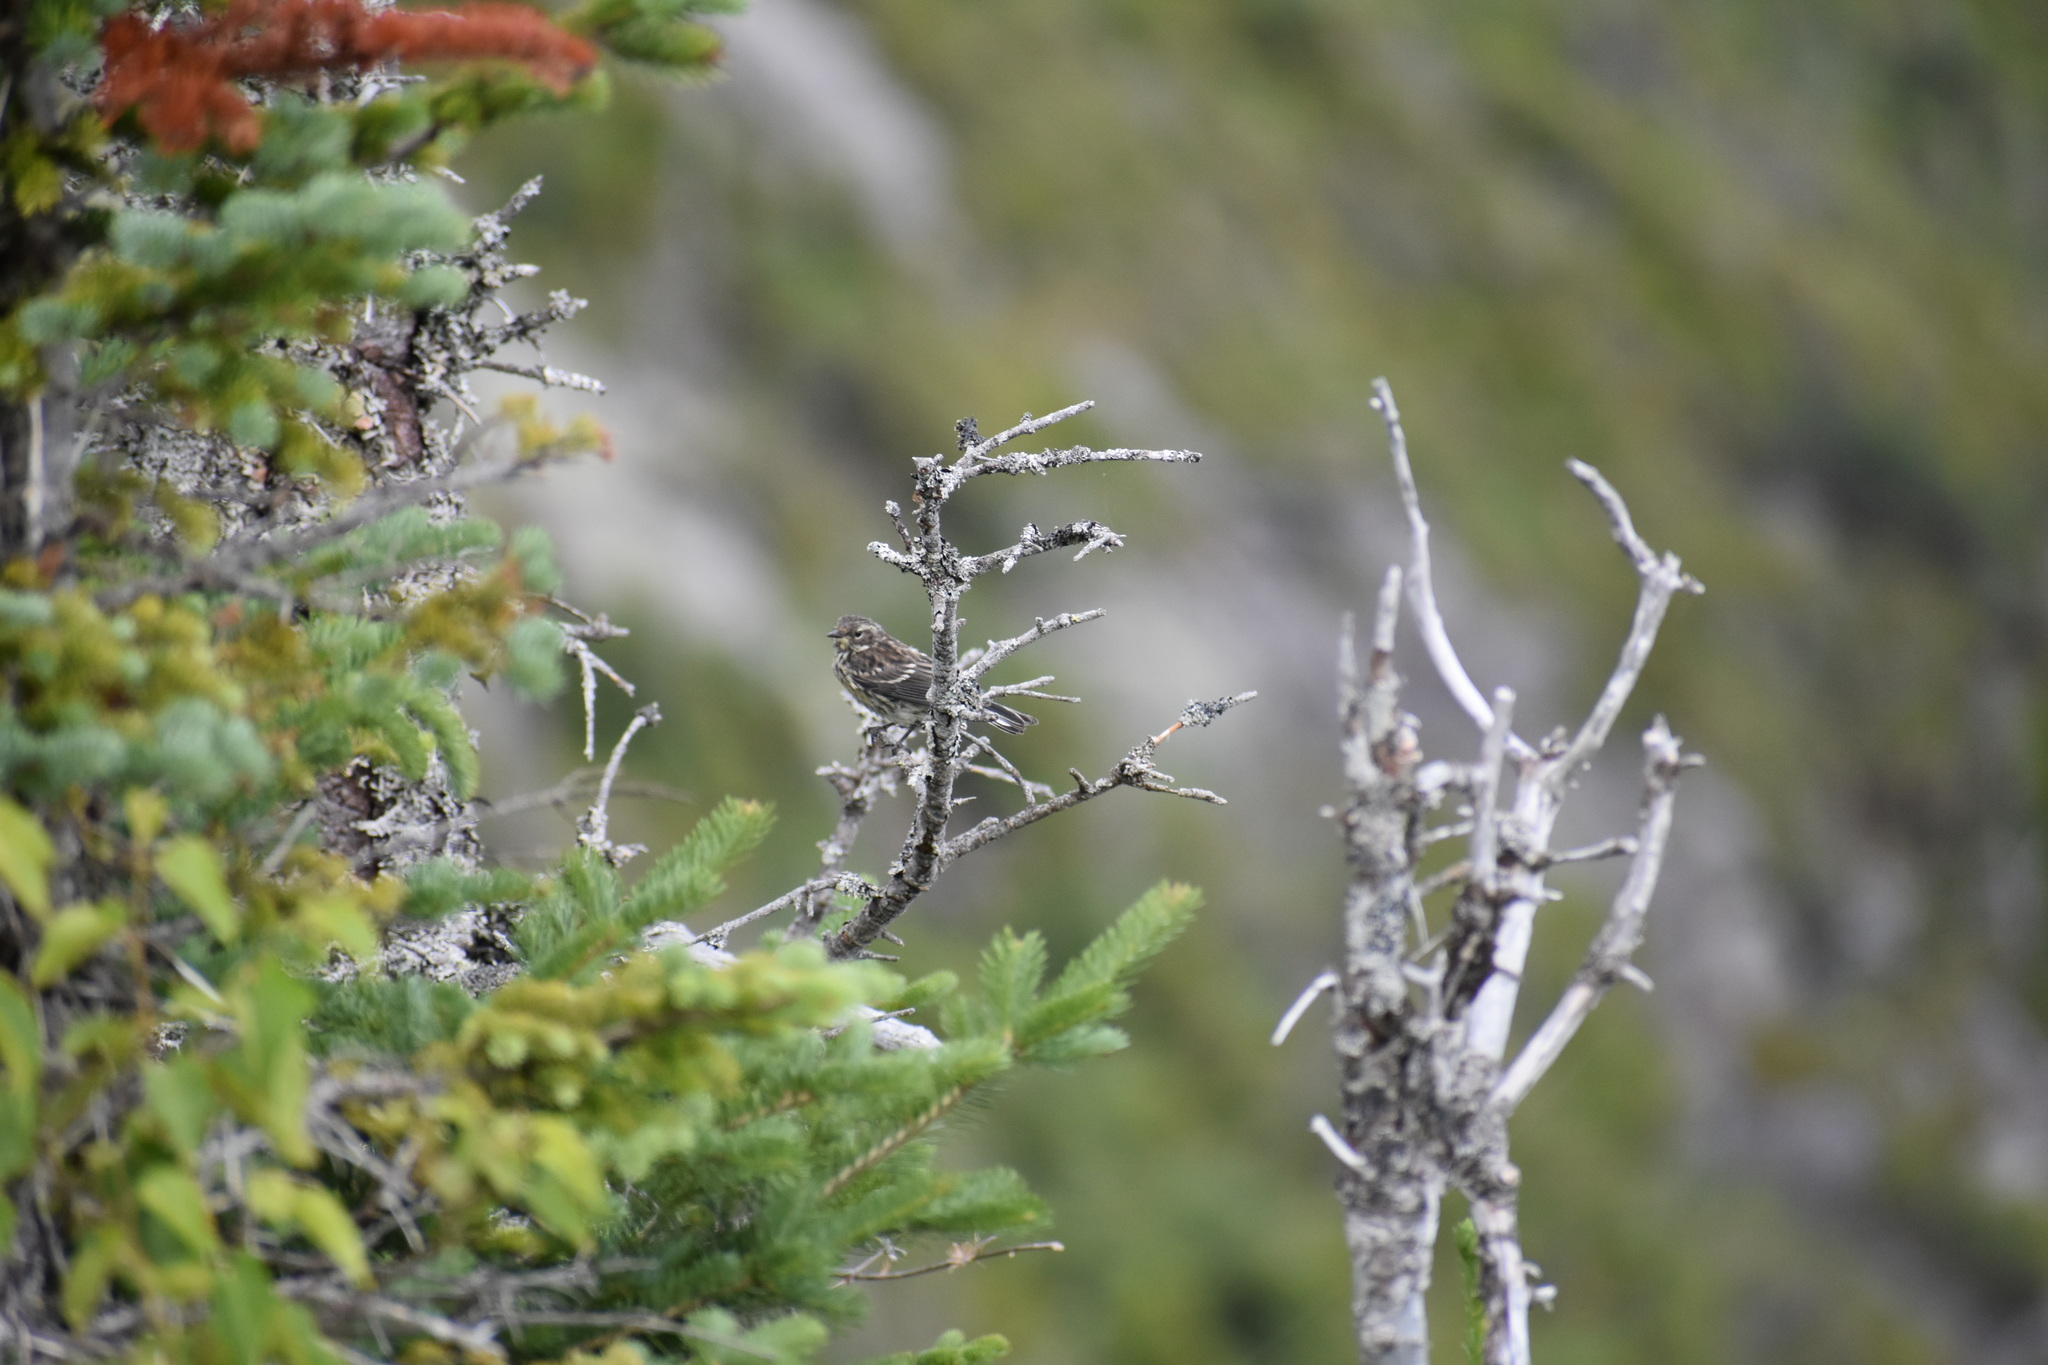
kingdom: Animalia
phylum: Chordata
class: Aves
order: Passeriformes
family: Parulidae
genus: Setophaga
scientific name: Setophaga coronata
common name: Myrtle warbler
